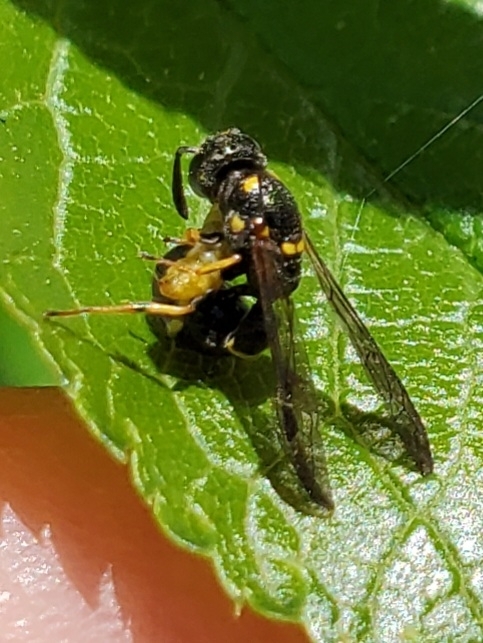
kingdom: Animalia
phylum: Arthropoda
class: Insecta
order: Hymenoptera
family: Eumenidae
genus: Cyrtolabulus
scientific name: Cyrtolabulus mutinensis
